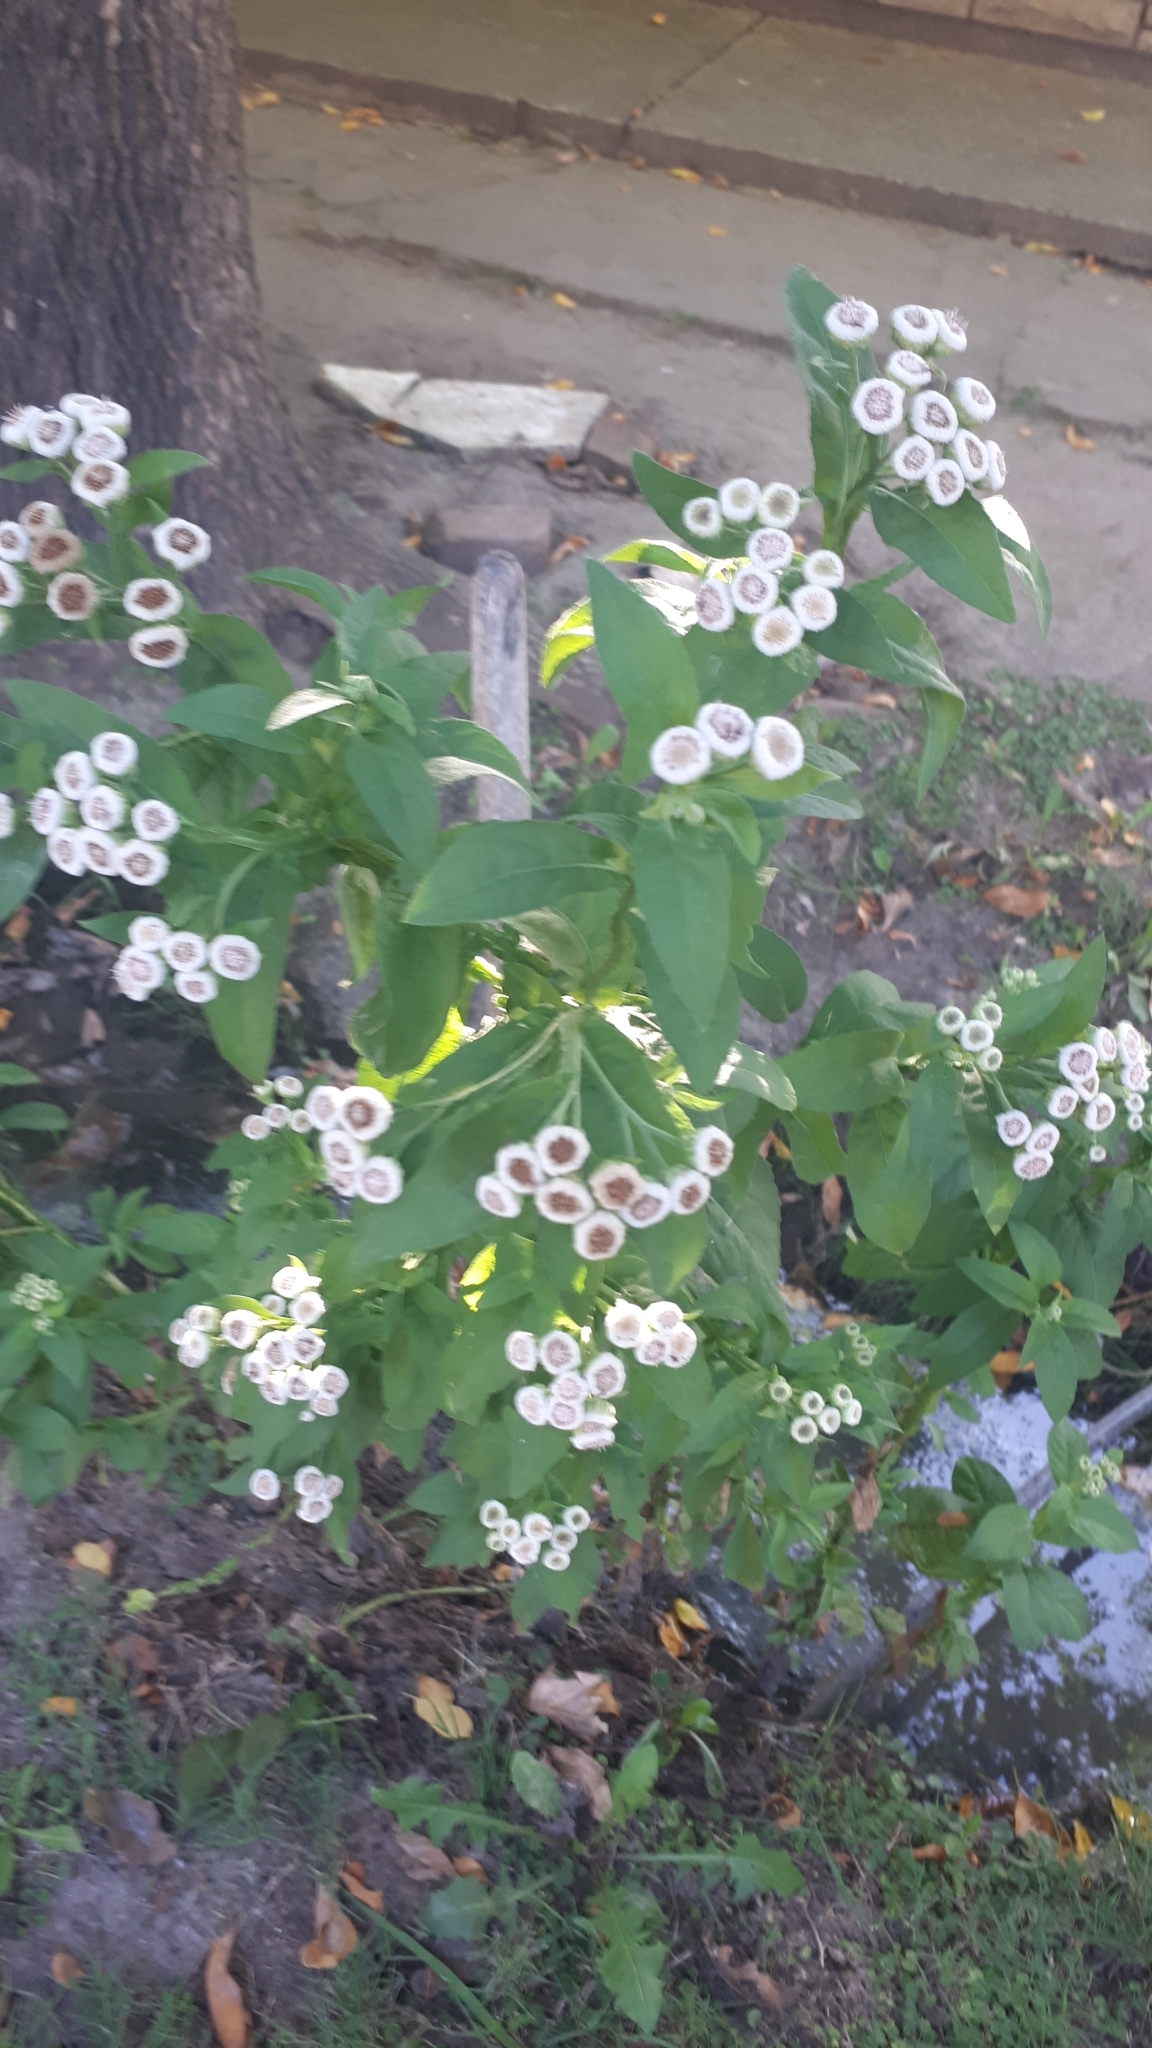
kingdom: Plantae
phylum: Tracheophyta
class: Magnoliopsida
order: Asterales
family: Asteraceae
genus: Pluchea
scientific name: Pluchea sagittalis
